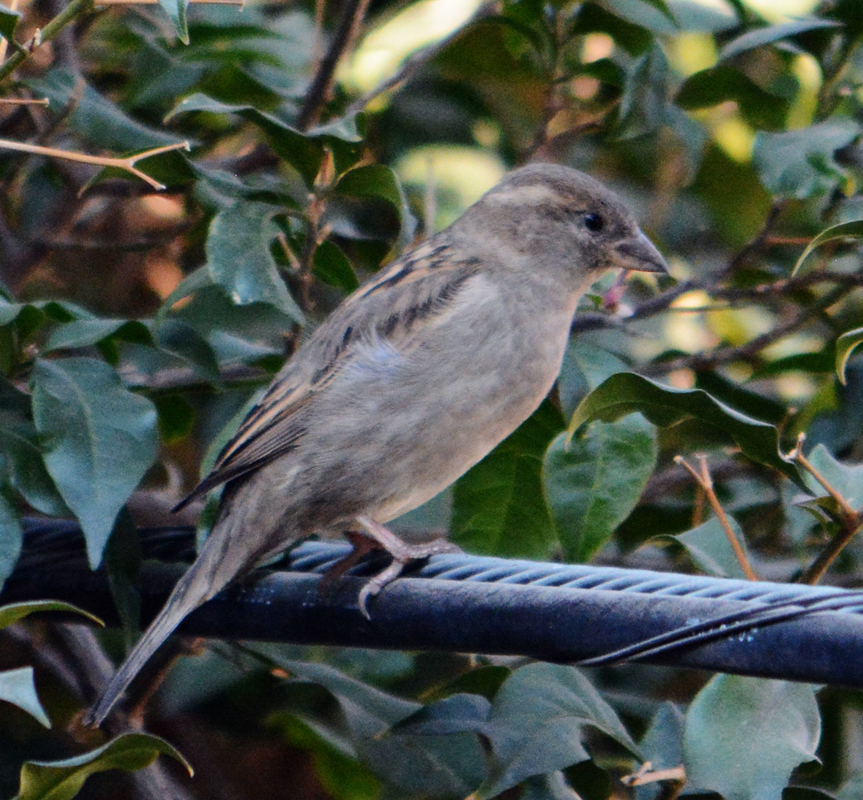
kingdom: Animalia
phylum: Chordata
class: Aves
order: Passeriformes
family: Passeridae
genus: Passer
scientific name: Passer domesticus
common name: House sparrow
